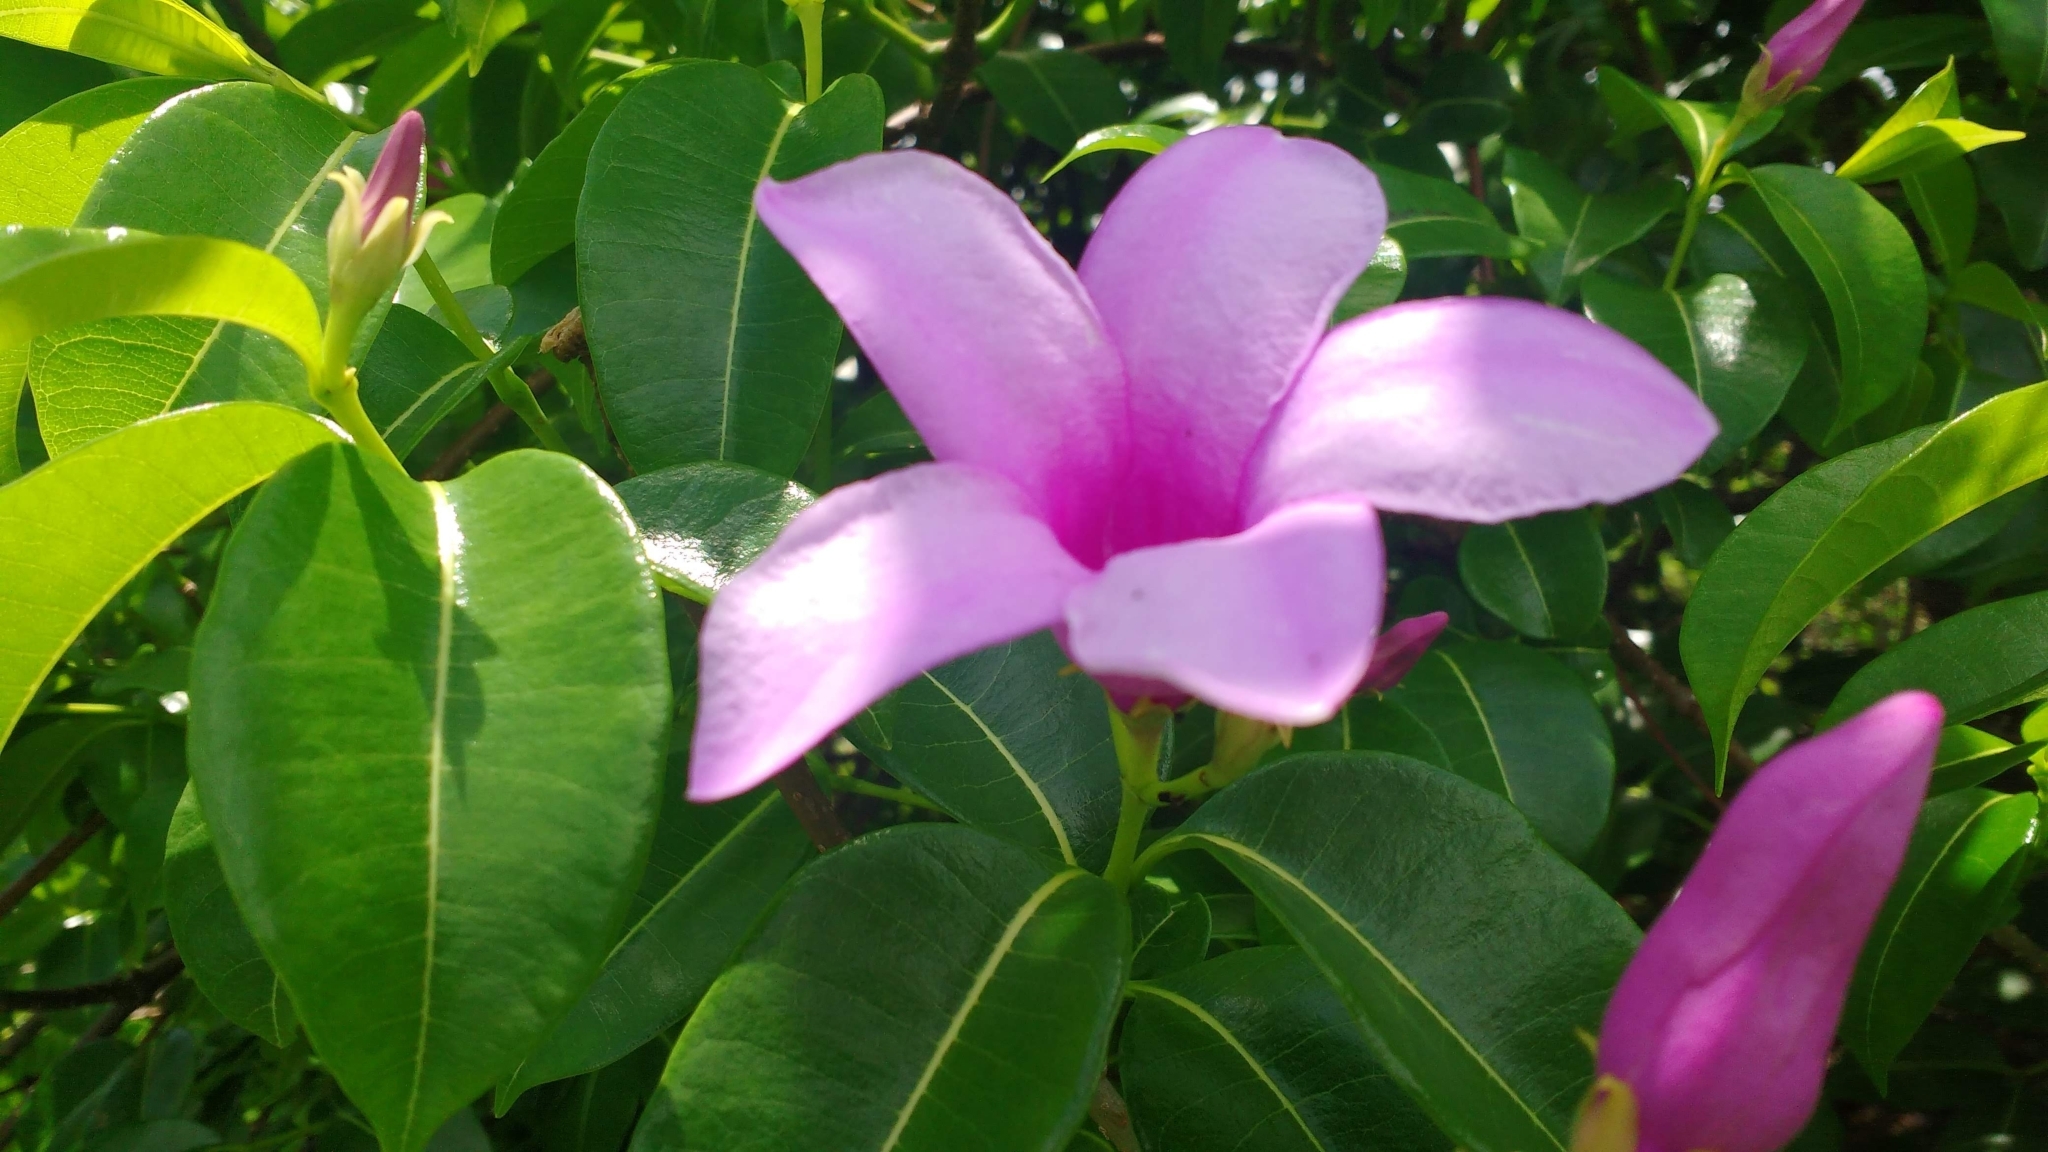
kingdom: Plantae
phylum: Tracheophyta
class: Magnoliopsida
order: Gentianales
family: Apocynaceae
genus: Cryptostegia
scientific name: Cryptostegia
